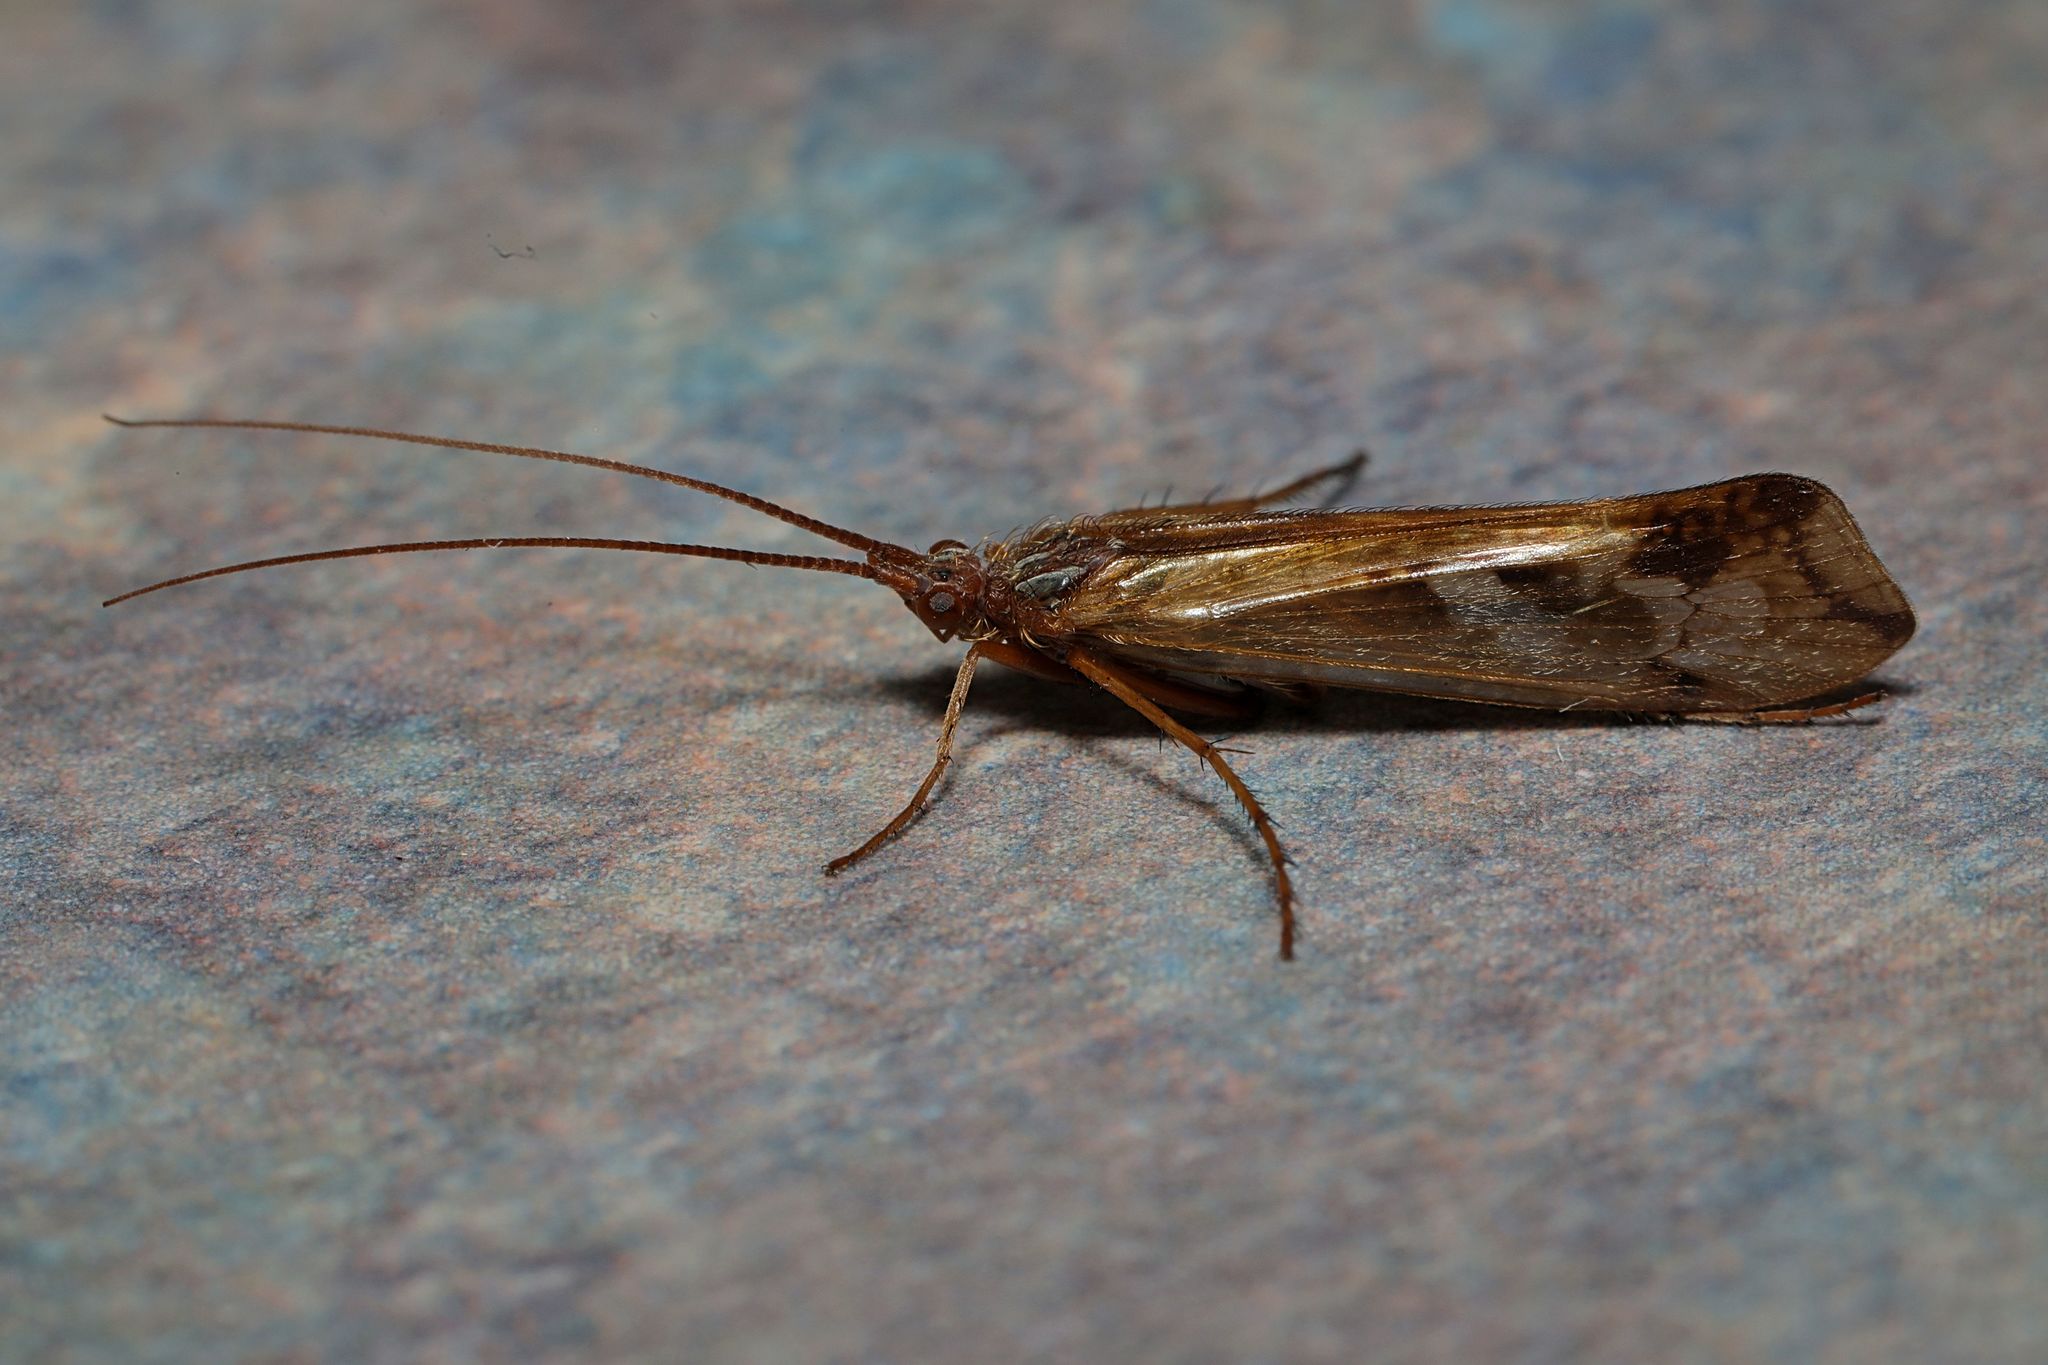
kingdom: Animalia
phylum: Arthropoda
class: Insecta
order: Trichoptera
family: Limnephilidae
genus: Limnephilus
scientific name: Limnephilus lunatus
